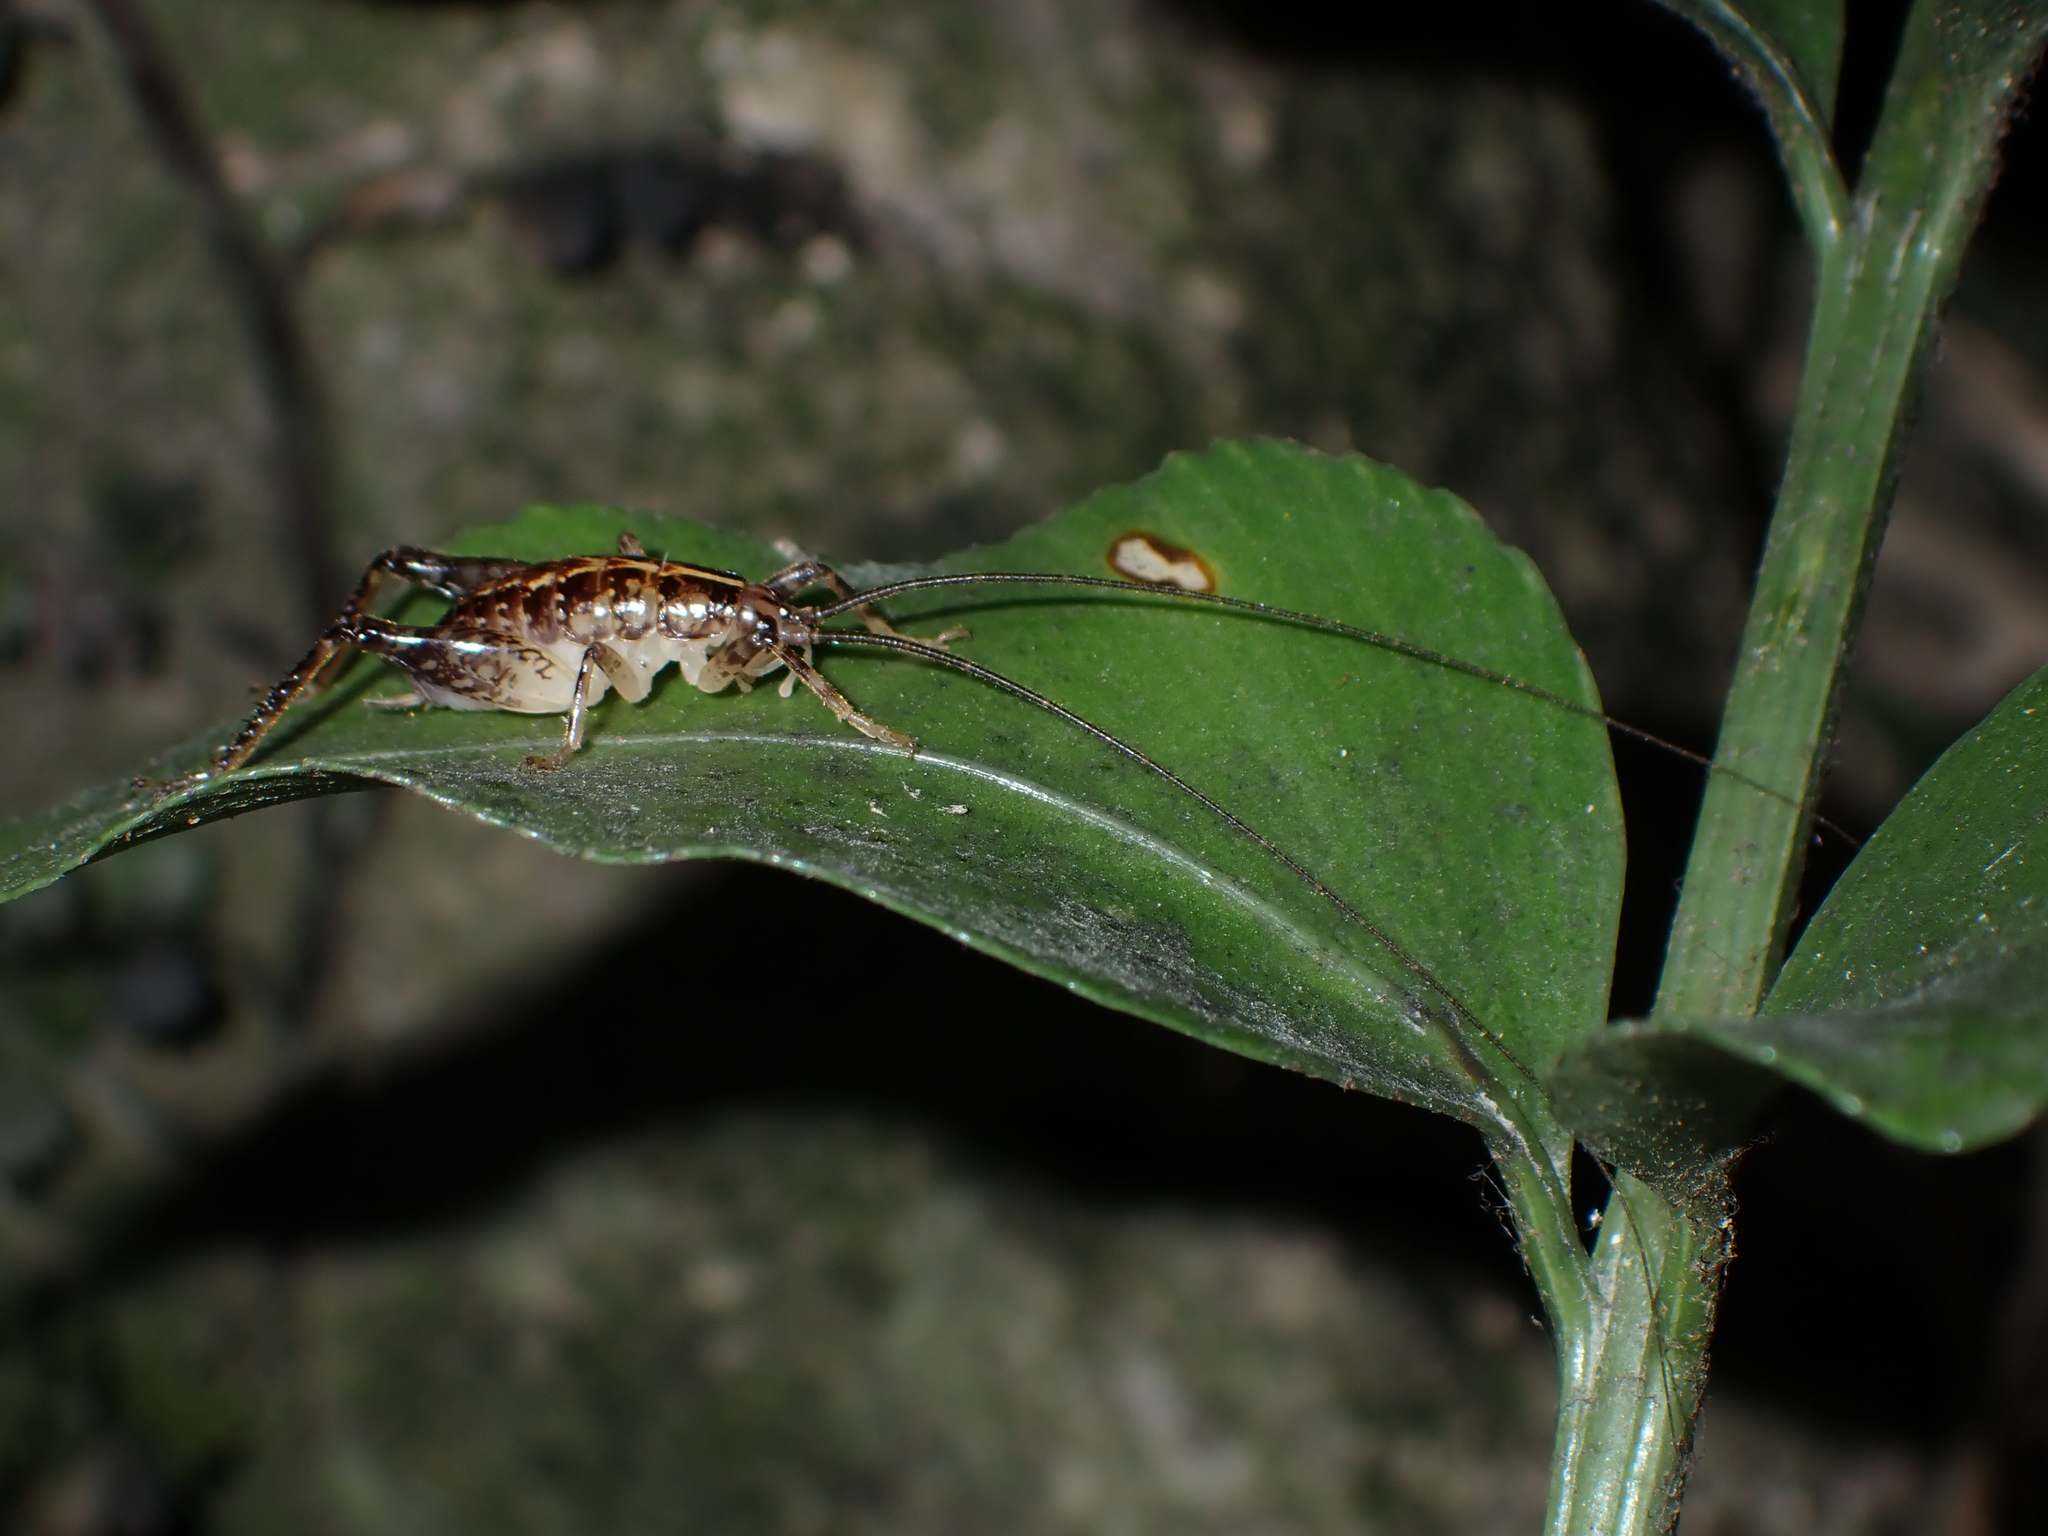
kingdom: Animalia
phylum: Arthropoda
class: Insecta
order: Orthoptera
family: Rhaphidophoridae
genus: Talitropsis
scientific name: Talitropsis sedilloti
